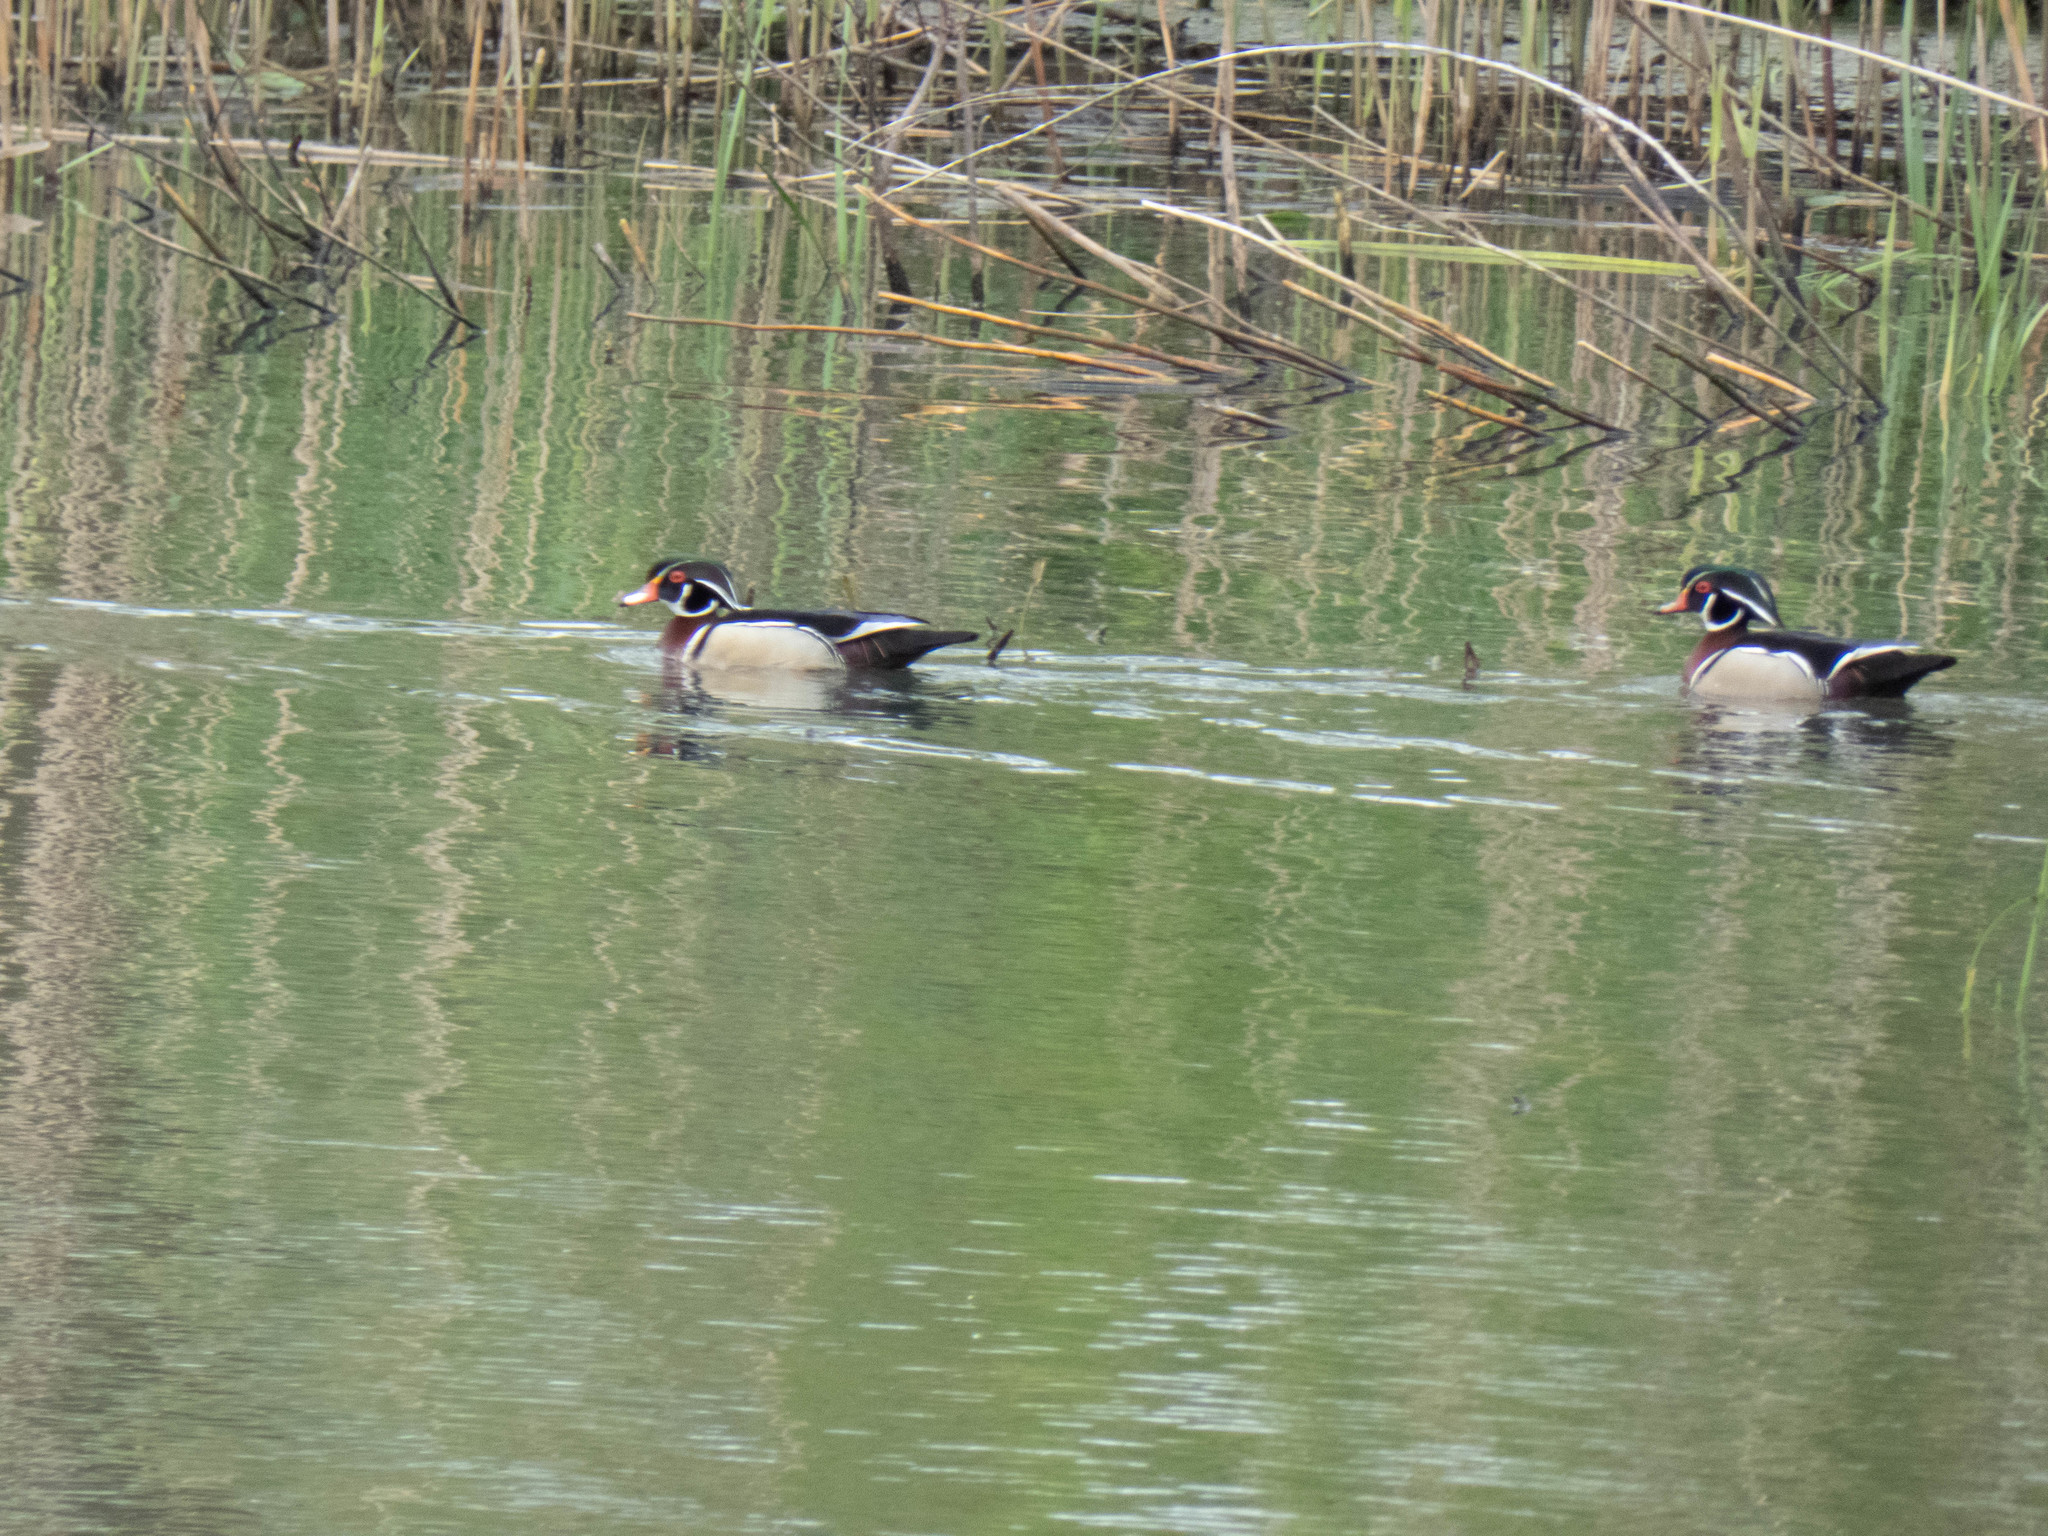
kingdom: Animalia
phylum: Chordata
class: Aves
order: Anseriformes
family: Anatidae
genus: Aix
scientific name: Aix sponsa
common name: Wood duck
